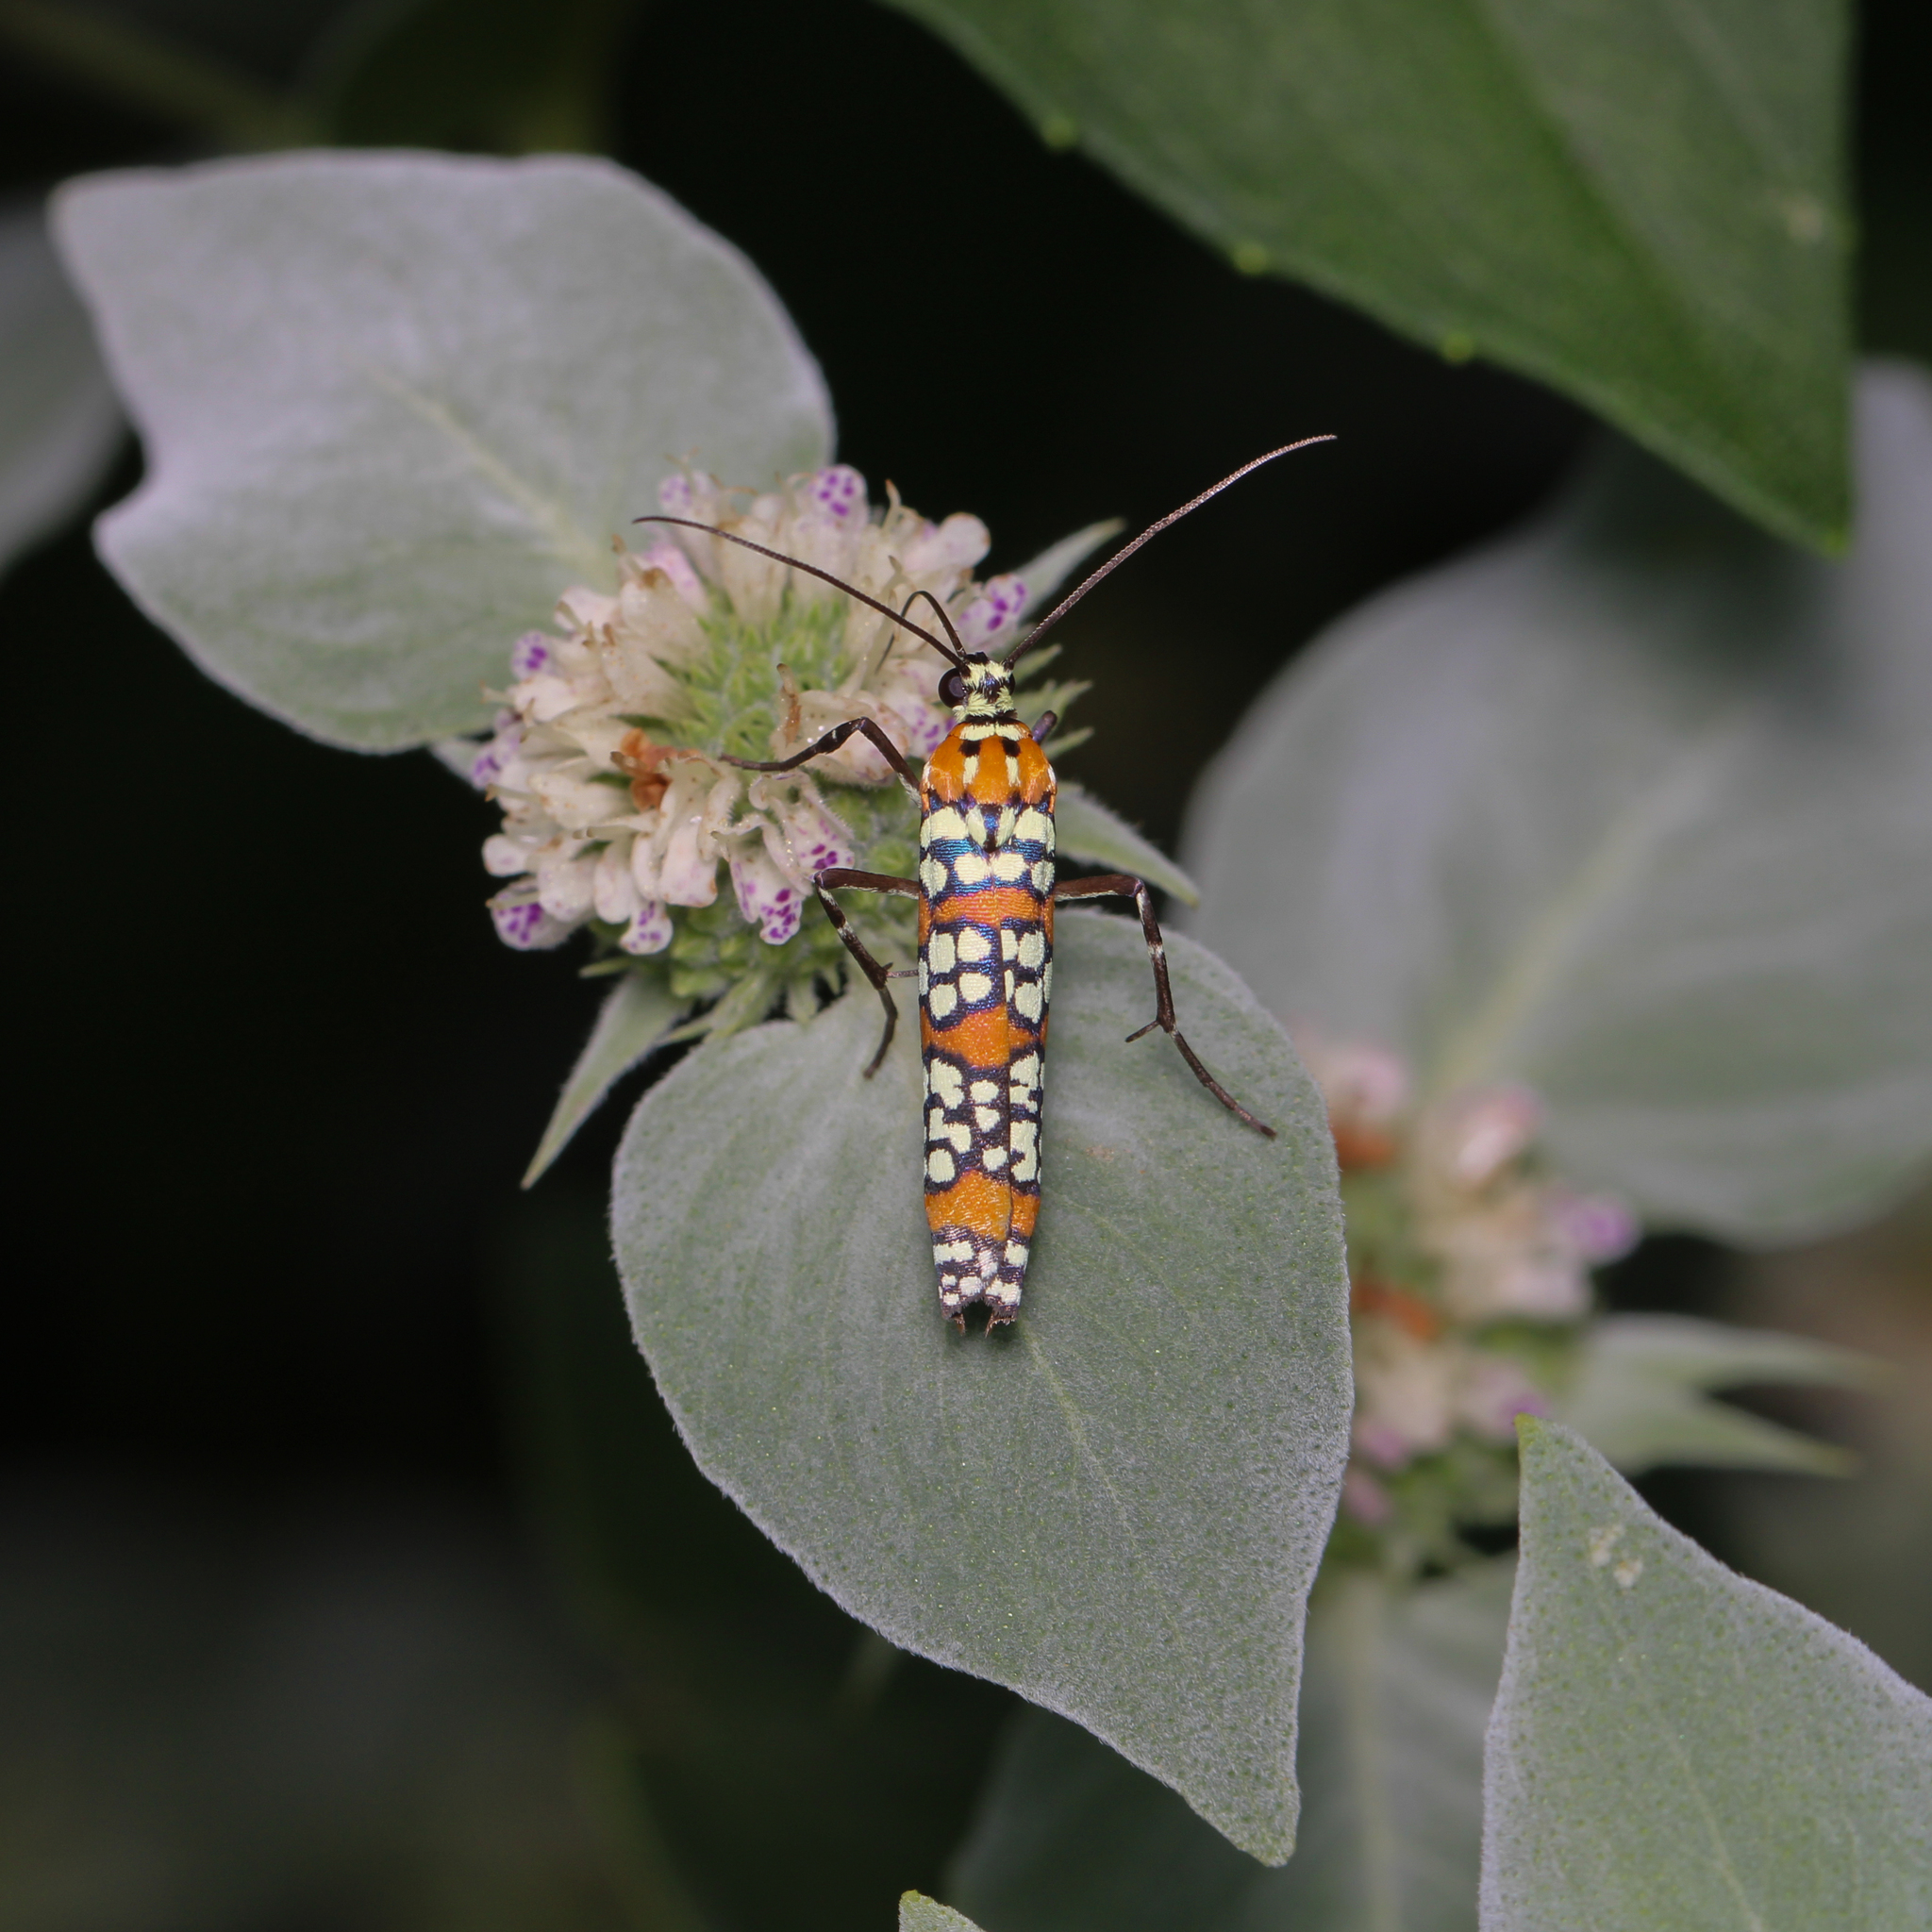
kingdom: Animalia
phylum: Arthropoda
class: Insecta
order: Lepidoptera
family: Attevidae
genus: Atteva
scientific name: Atteva punctella
